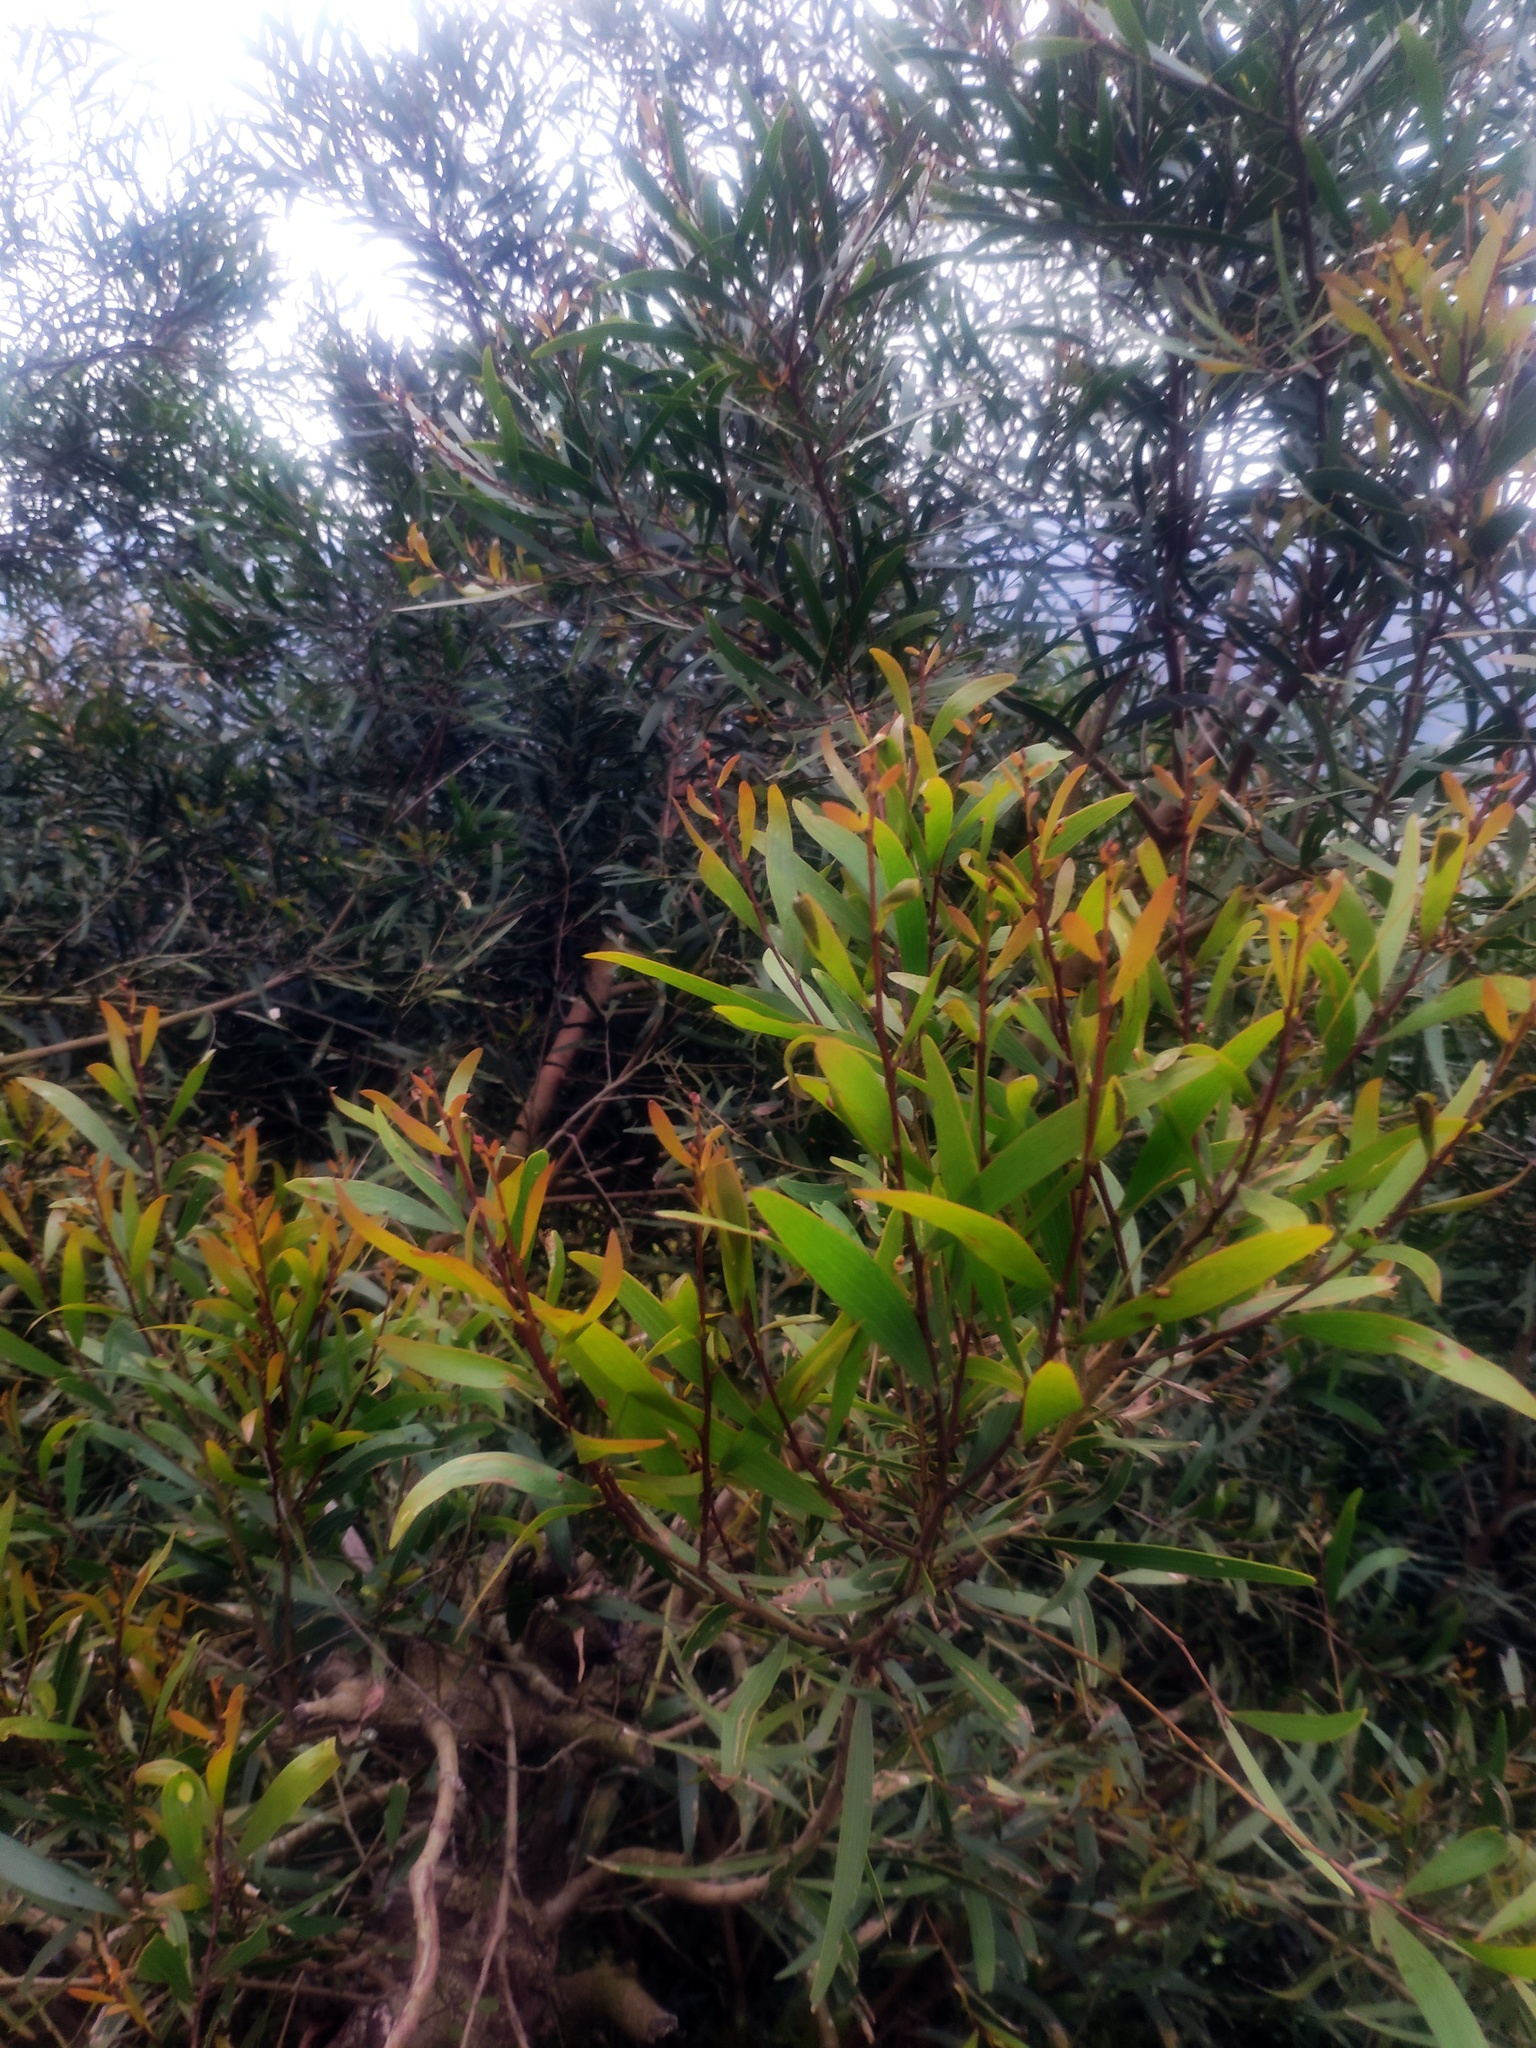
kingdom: Plantae
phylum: Tracheophyta
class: Magnoliopsida
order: Fabales
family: Fabaceae
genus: Acacia
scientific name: Acacia confusa
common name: Formosan koa
